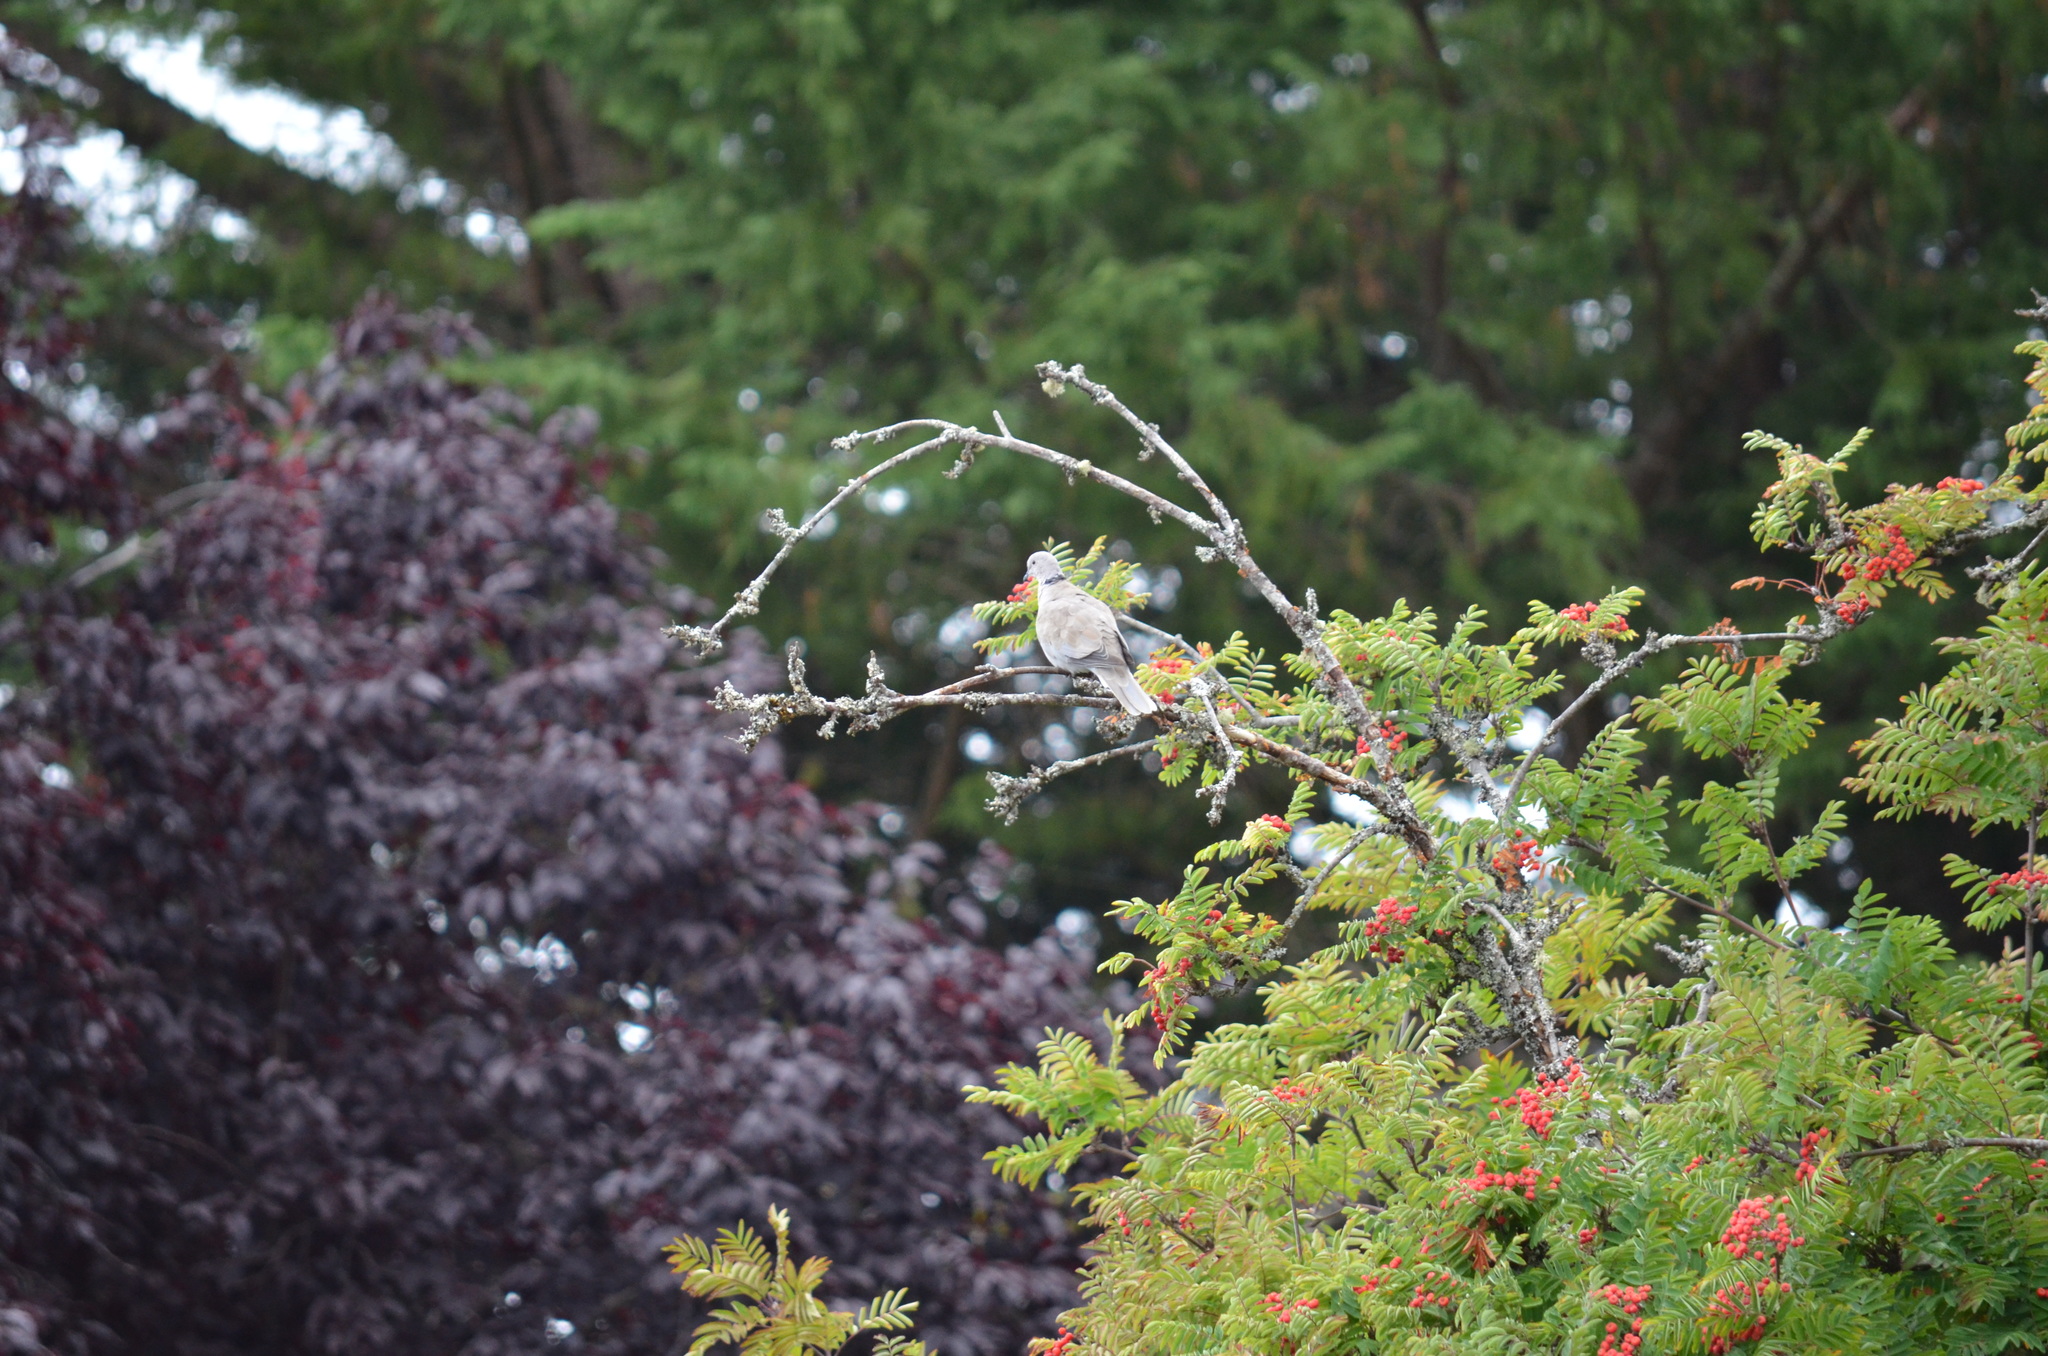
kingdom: Animalia
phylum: Chordata
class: Aves
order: Columbiformes
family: Columbidae
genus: Streptopelia
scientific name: Streptopelia decaocto
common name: Eurasian collared dove
